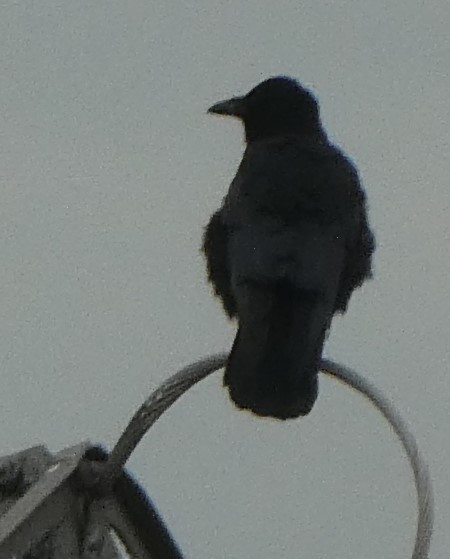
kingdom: Animalia
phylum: Chordata
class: Aves
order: Passeriformes
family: Corvidae
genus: Corvus
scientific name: Corvus corone
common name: Carrion crow
